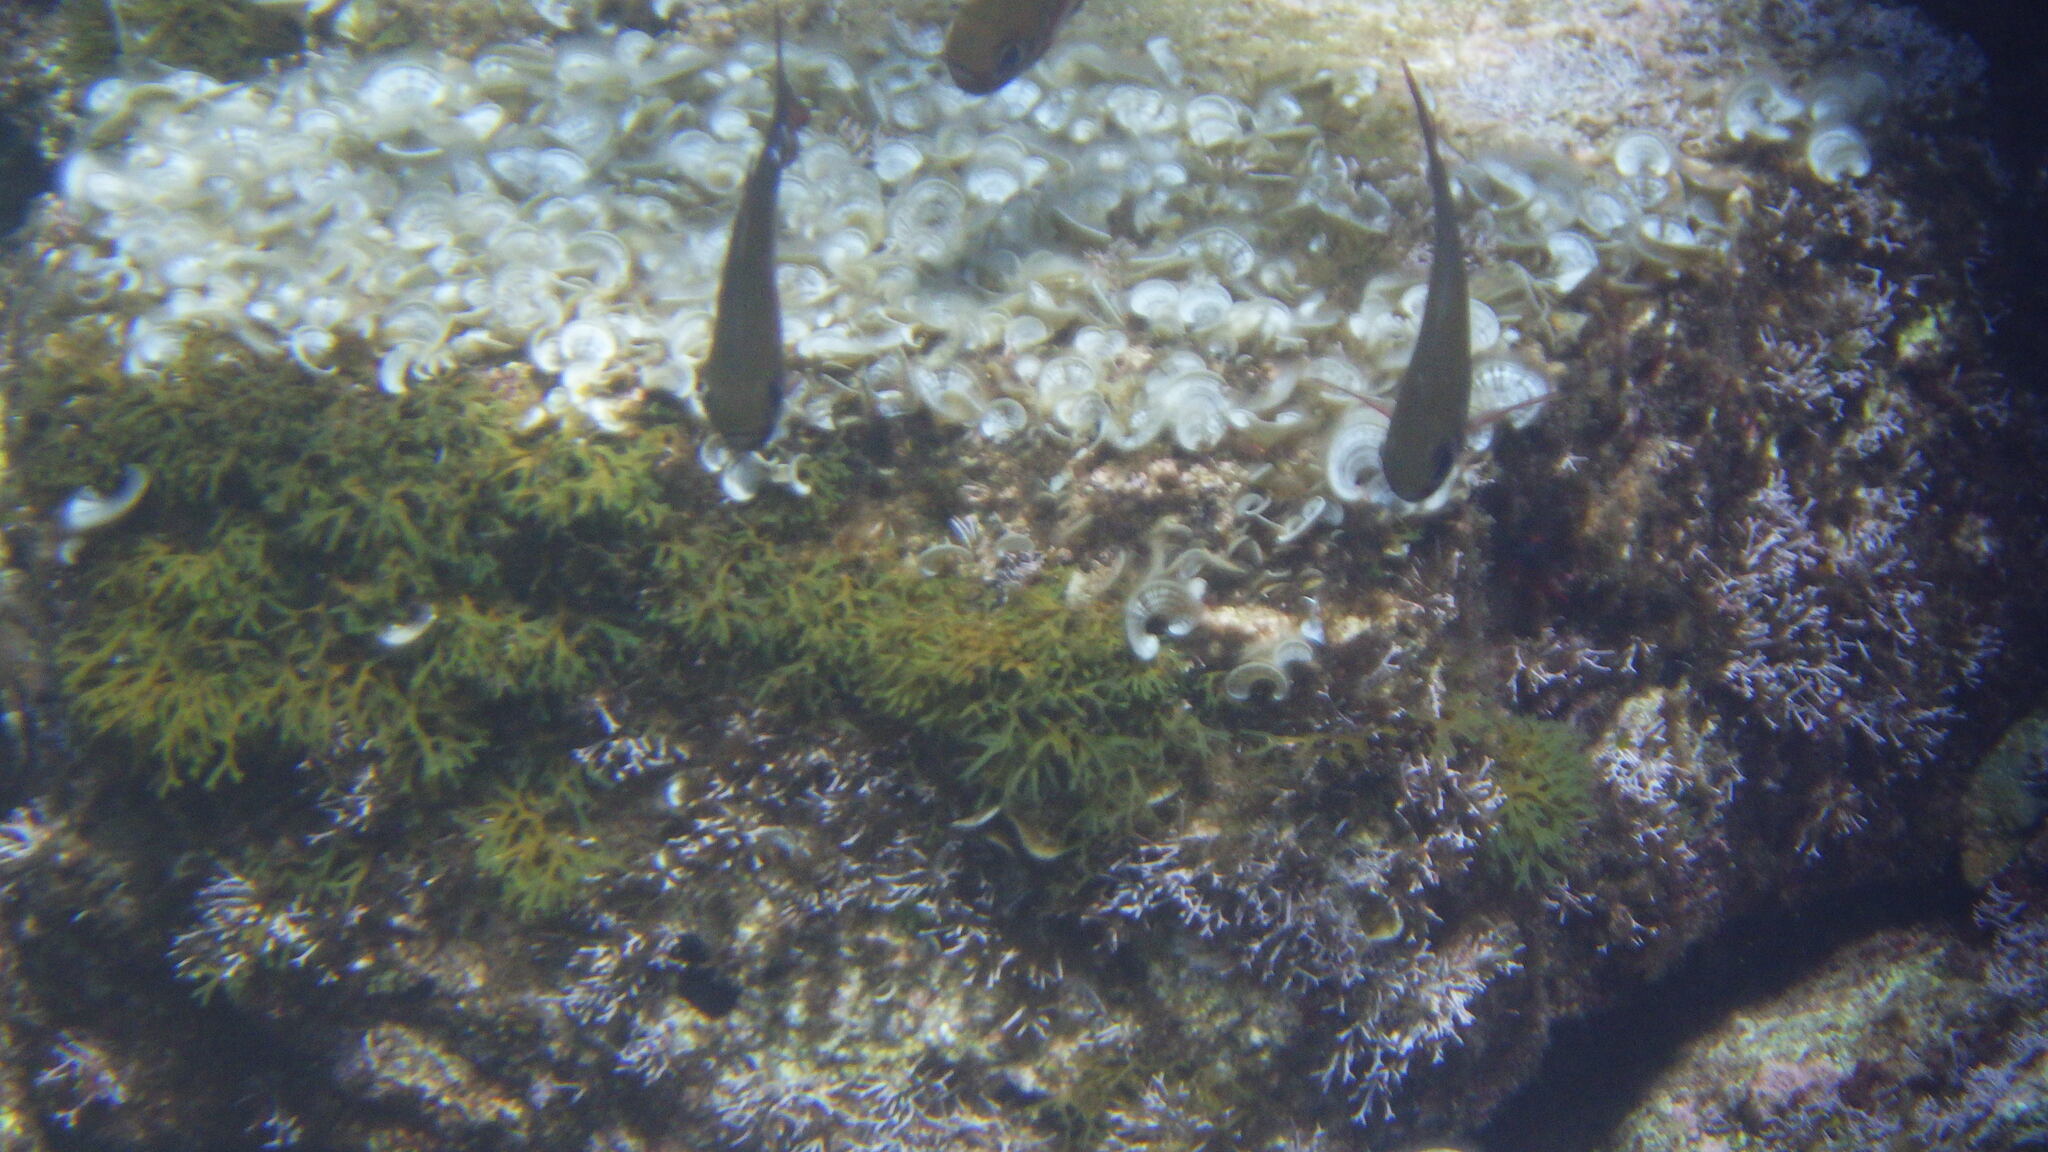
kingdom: Animalia
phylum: Chordata
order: Perciformes
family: Pempheridae
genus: Pempheris
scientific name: Pempheris rhomboidea
